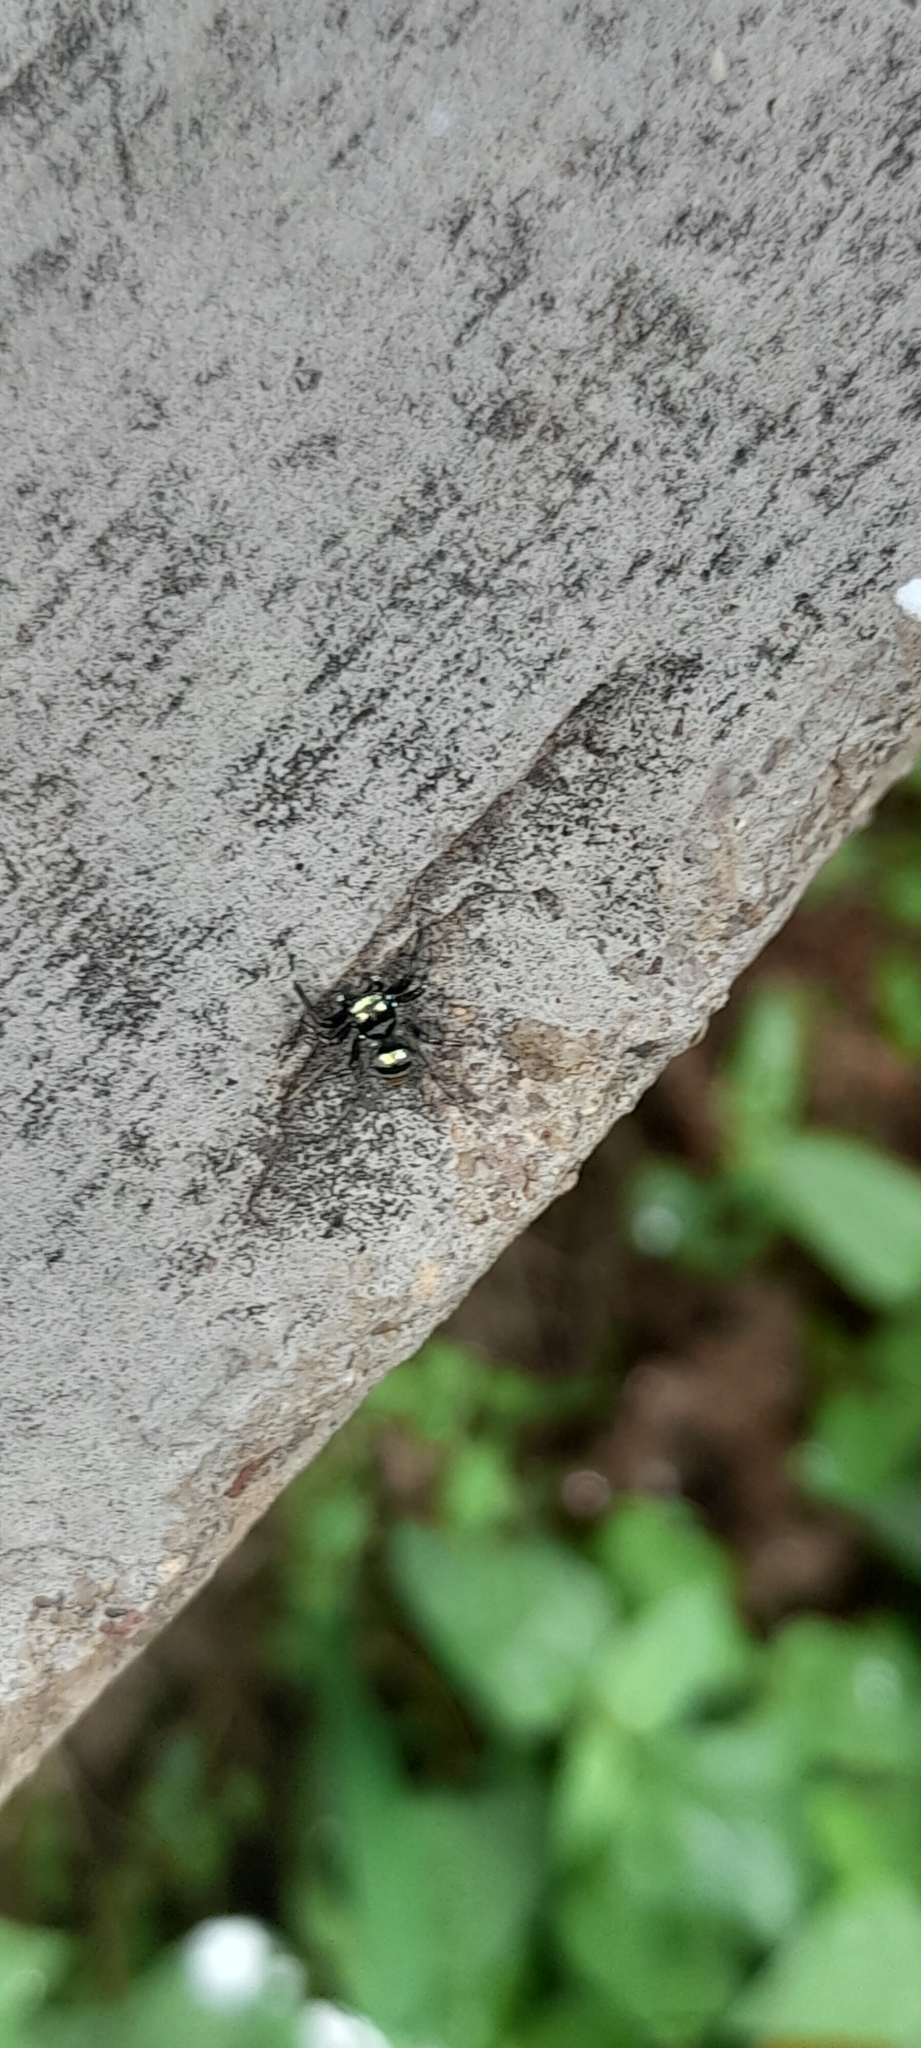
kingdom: Animalia
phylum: Arthropoda
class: Arachnida
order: Araneae
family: Salticidae
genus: Phintella
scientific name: Phintella vittata
